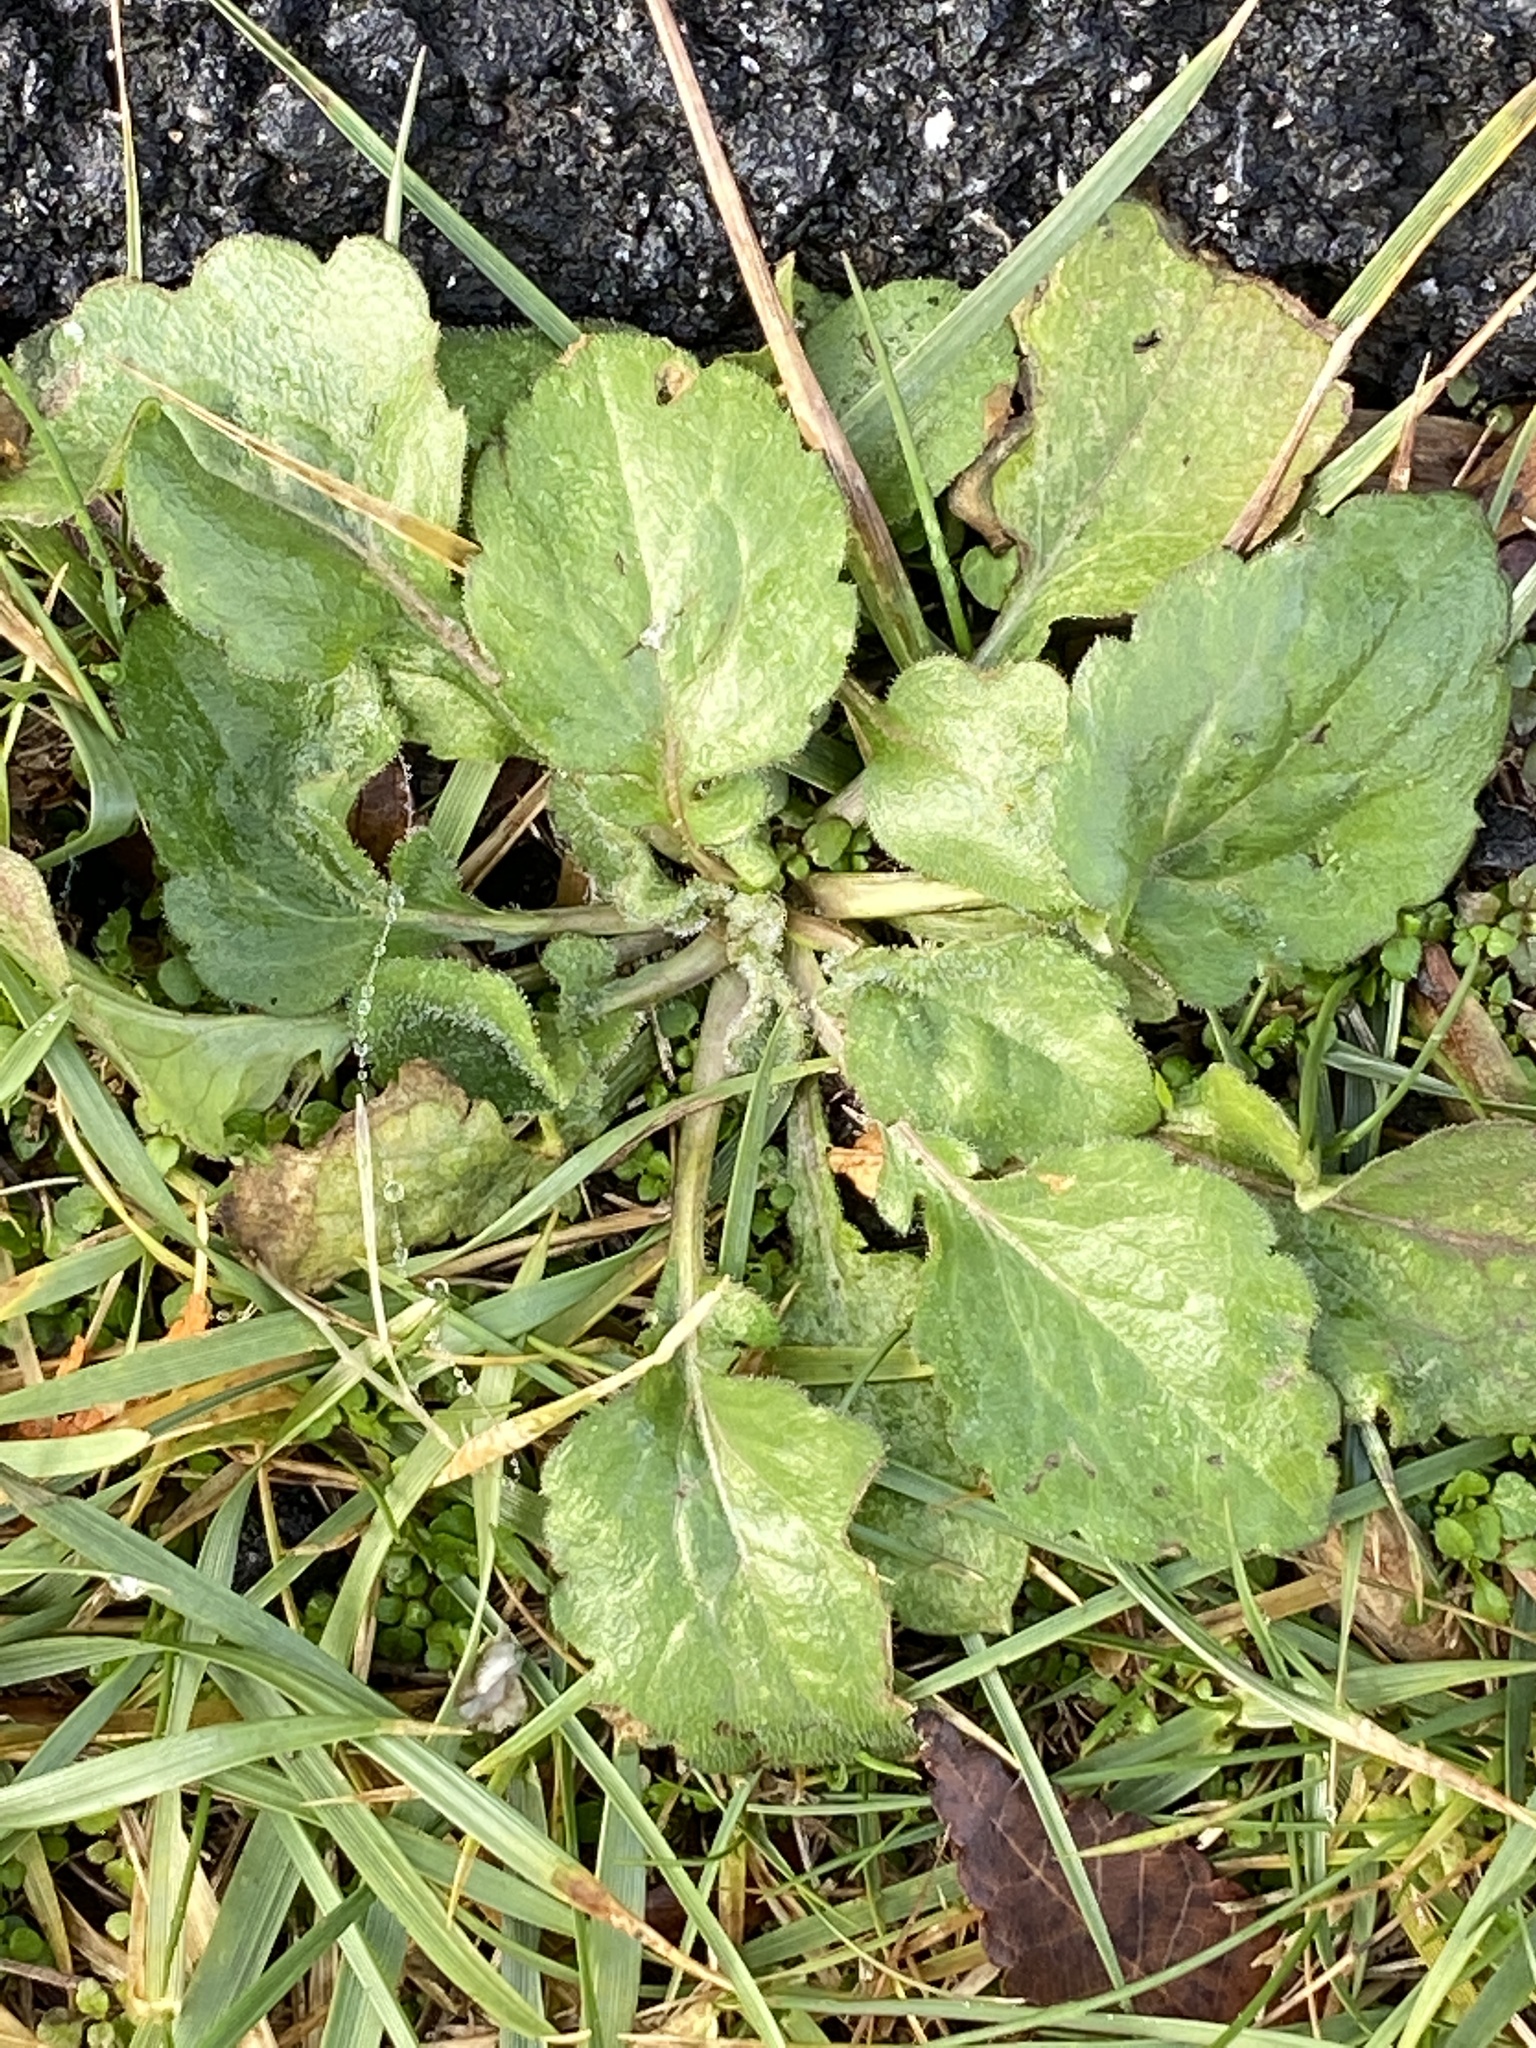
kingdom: Plantae
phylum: Tracheophyta
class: Magnoliopsida
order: Asterales
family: Asteraceae
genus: Erigeron
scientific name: Erigeron annuus
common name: Tall fleabane
